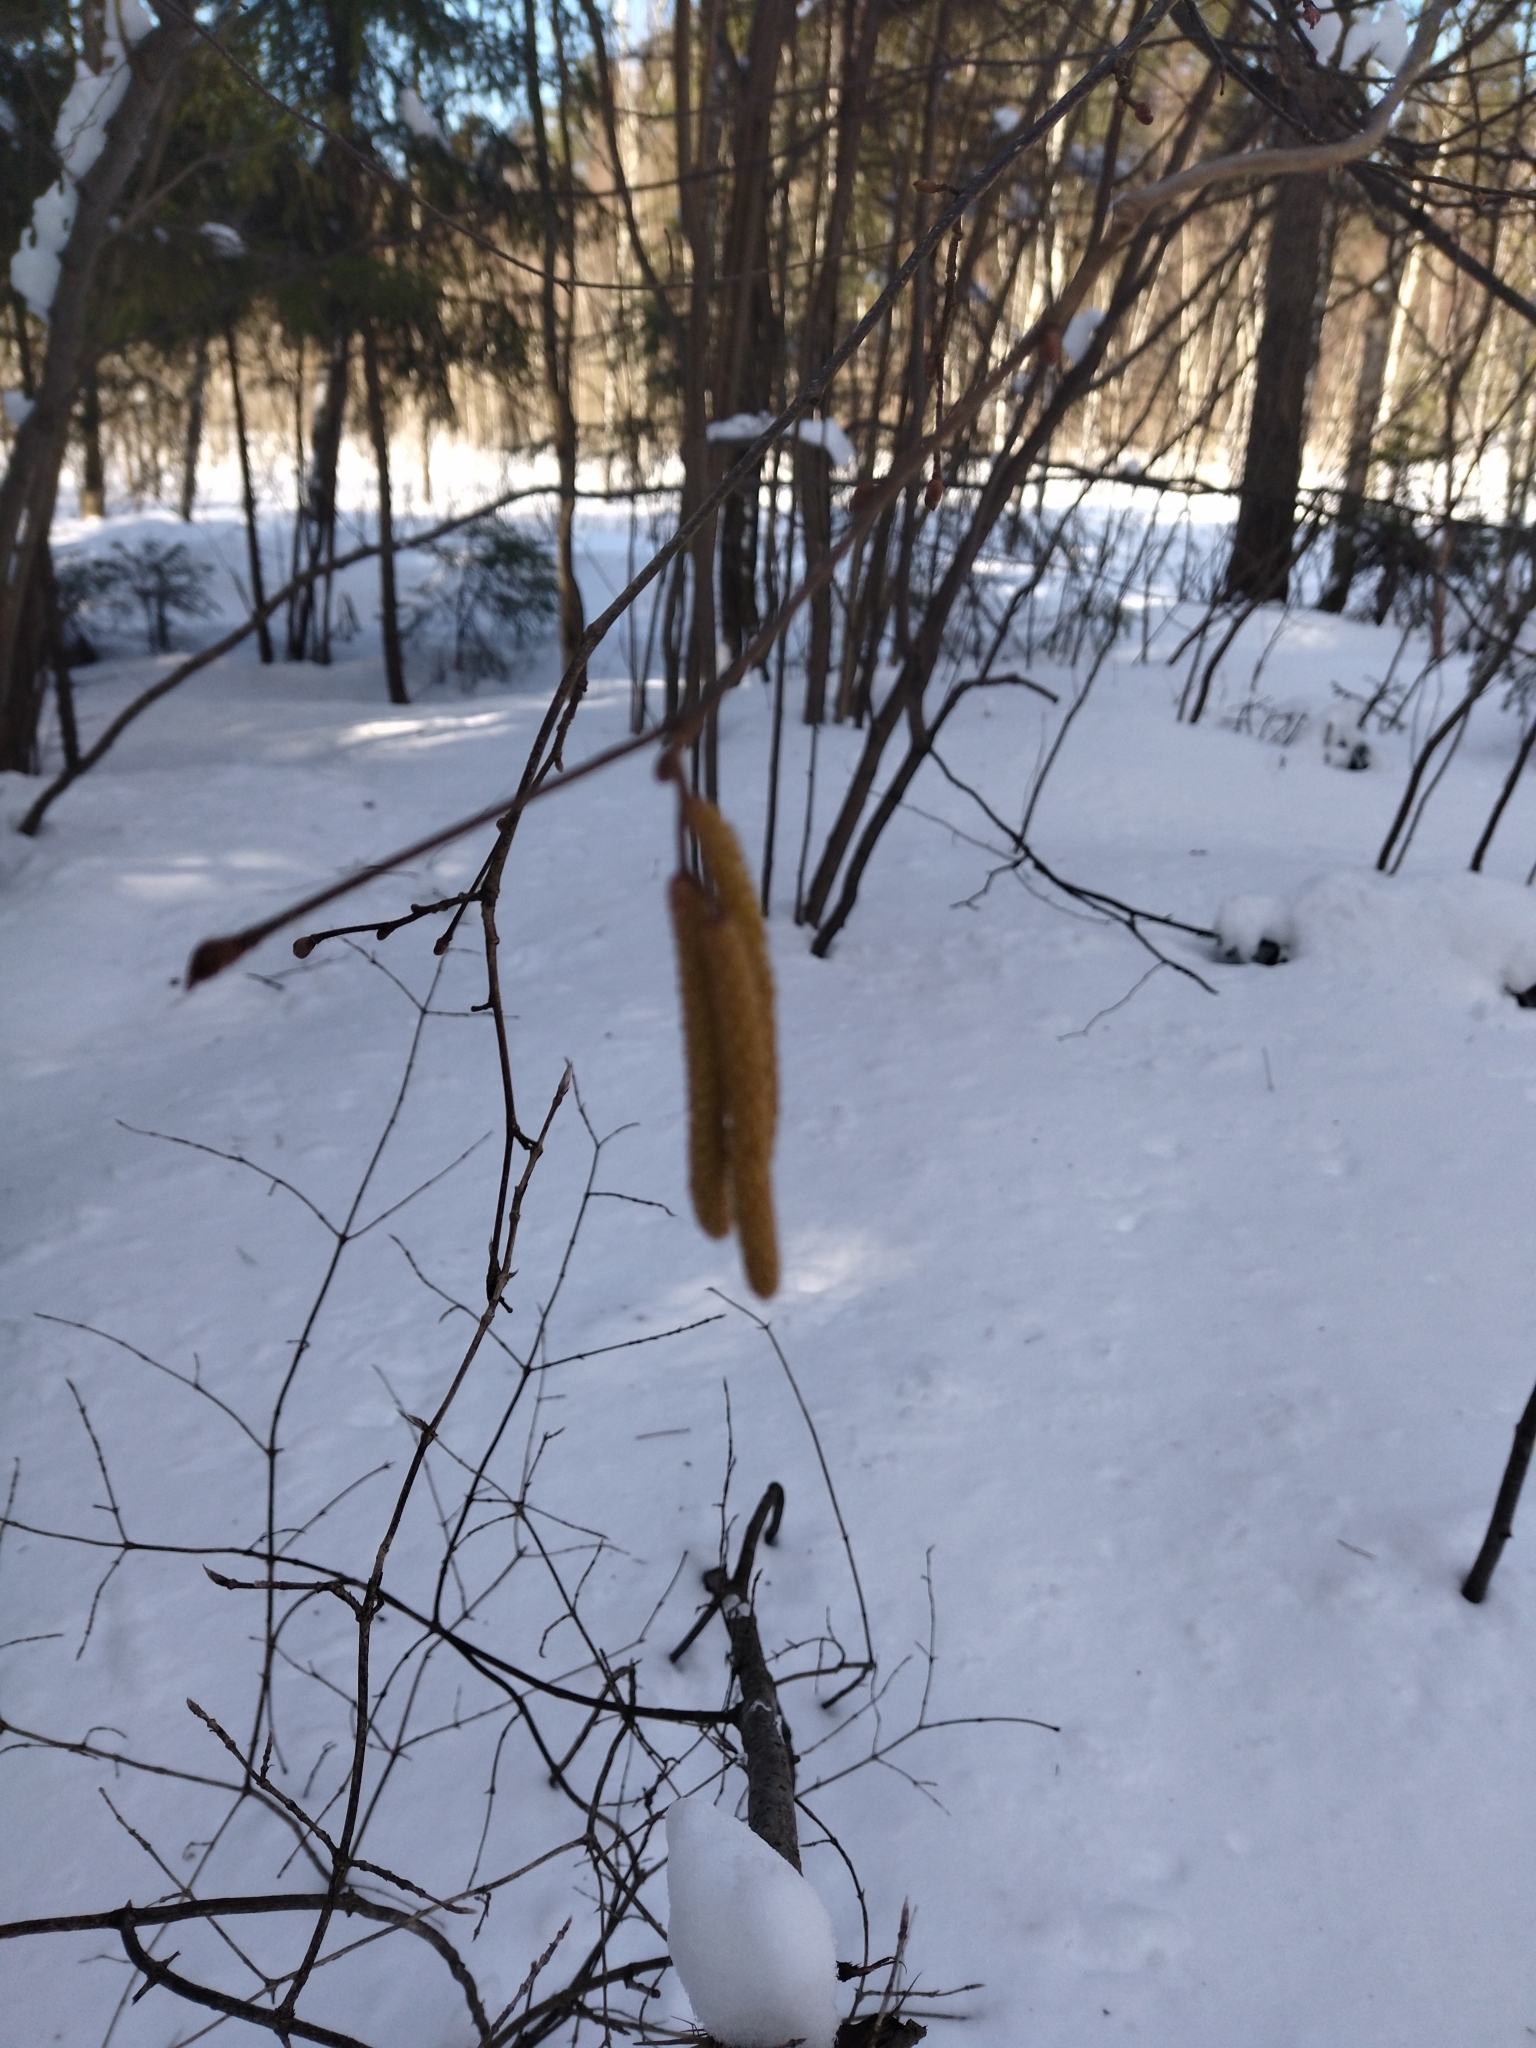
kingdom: Plantae
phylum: Tracheophyta
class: Magnoliopsida
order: Fagales
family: Betulaceae
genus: Corylus
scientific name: Corylus avellana
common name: European hazel
